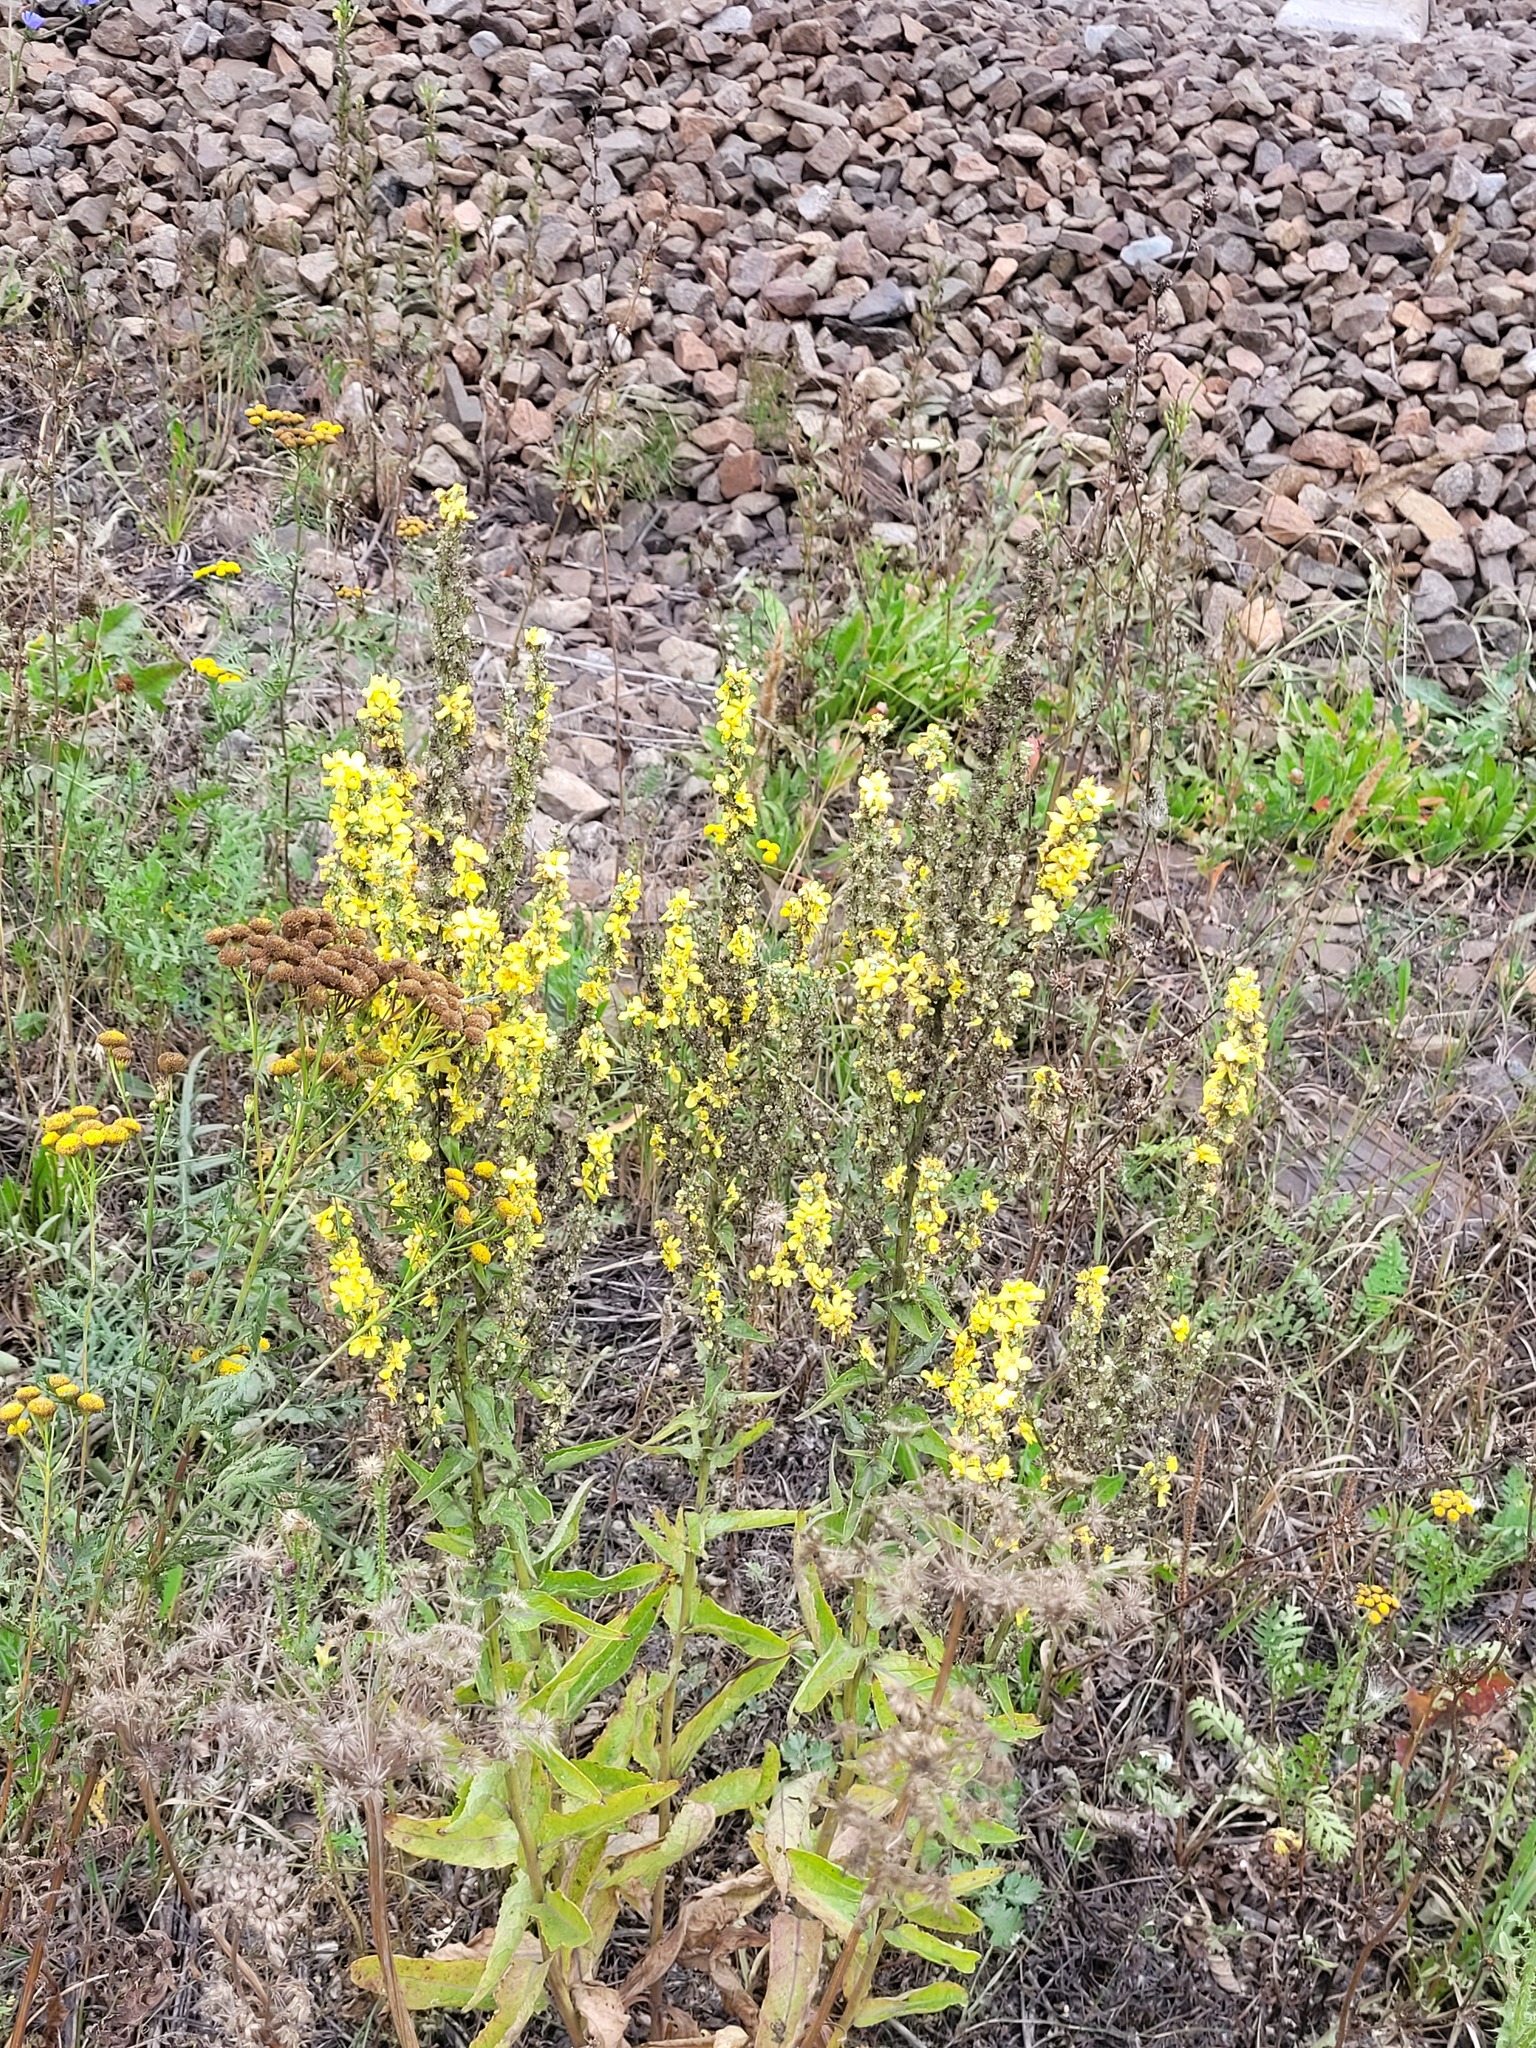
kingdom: Plantae
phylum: Tracheophyta
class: Magnoliopsida
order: Lamiales
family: Scrophulariaceae
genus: Verbascum
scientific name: Verbascum lychnitis
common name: White mullein
